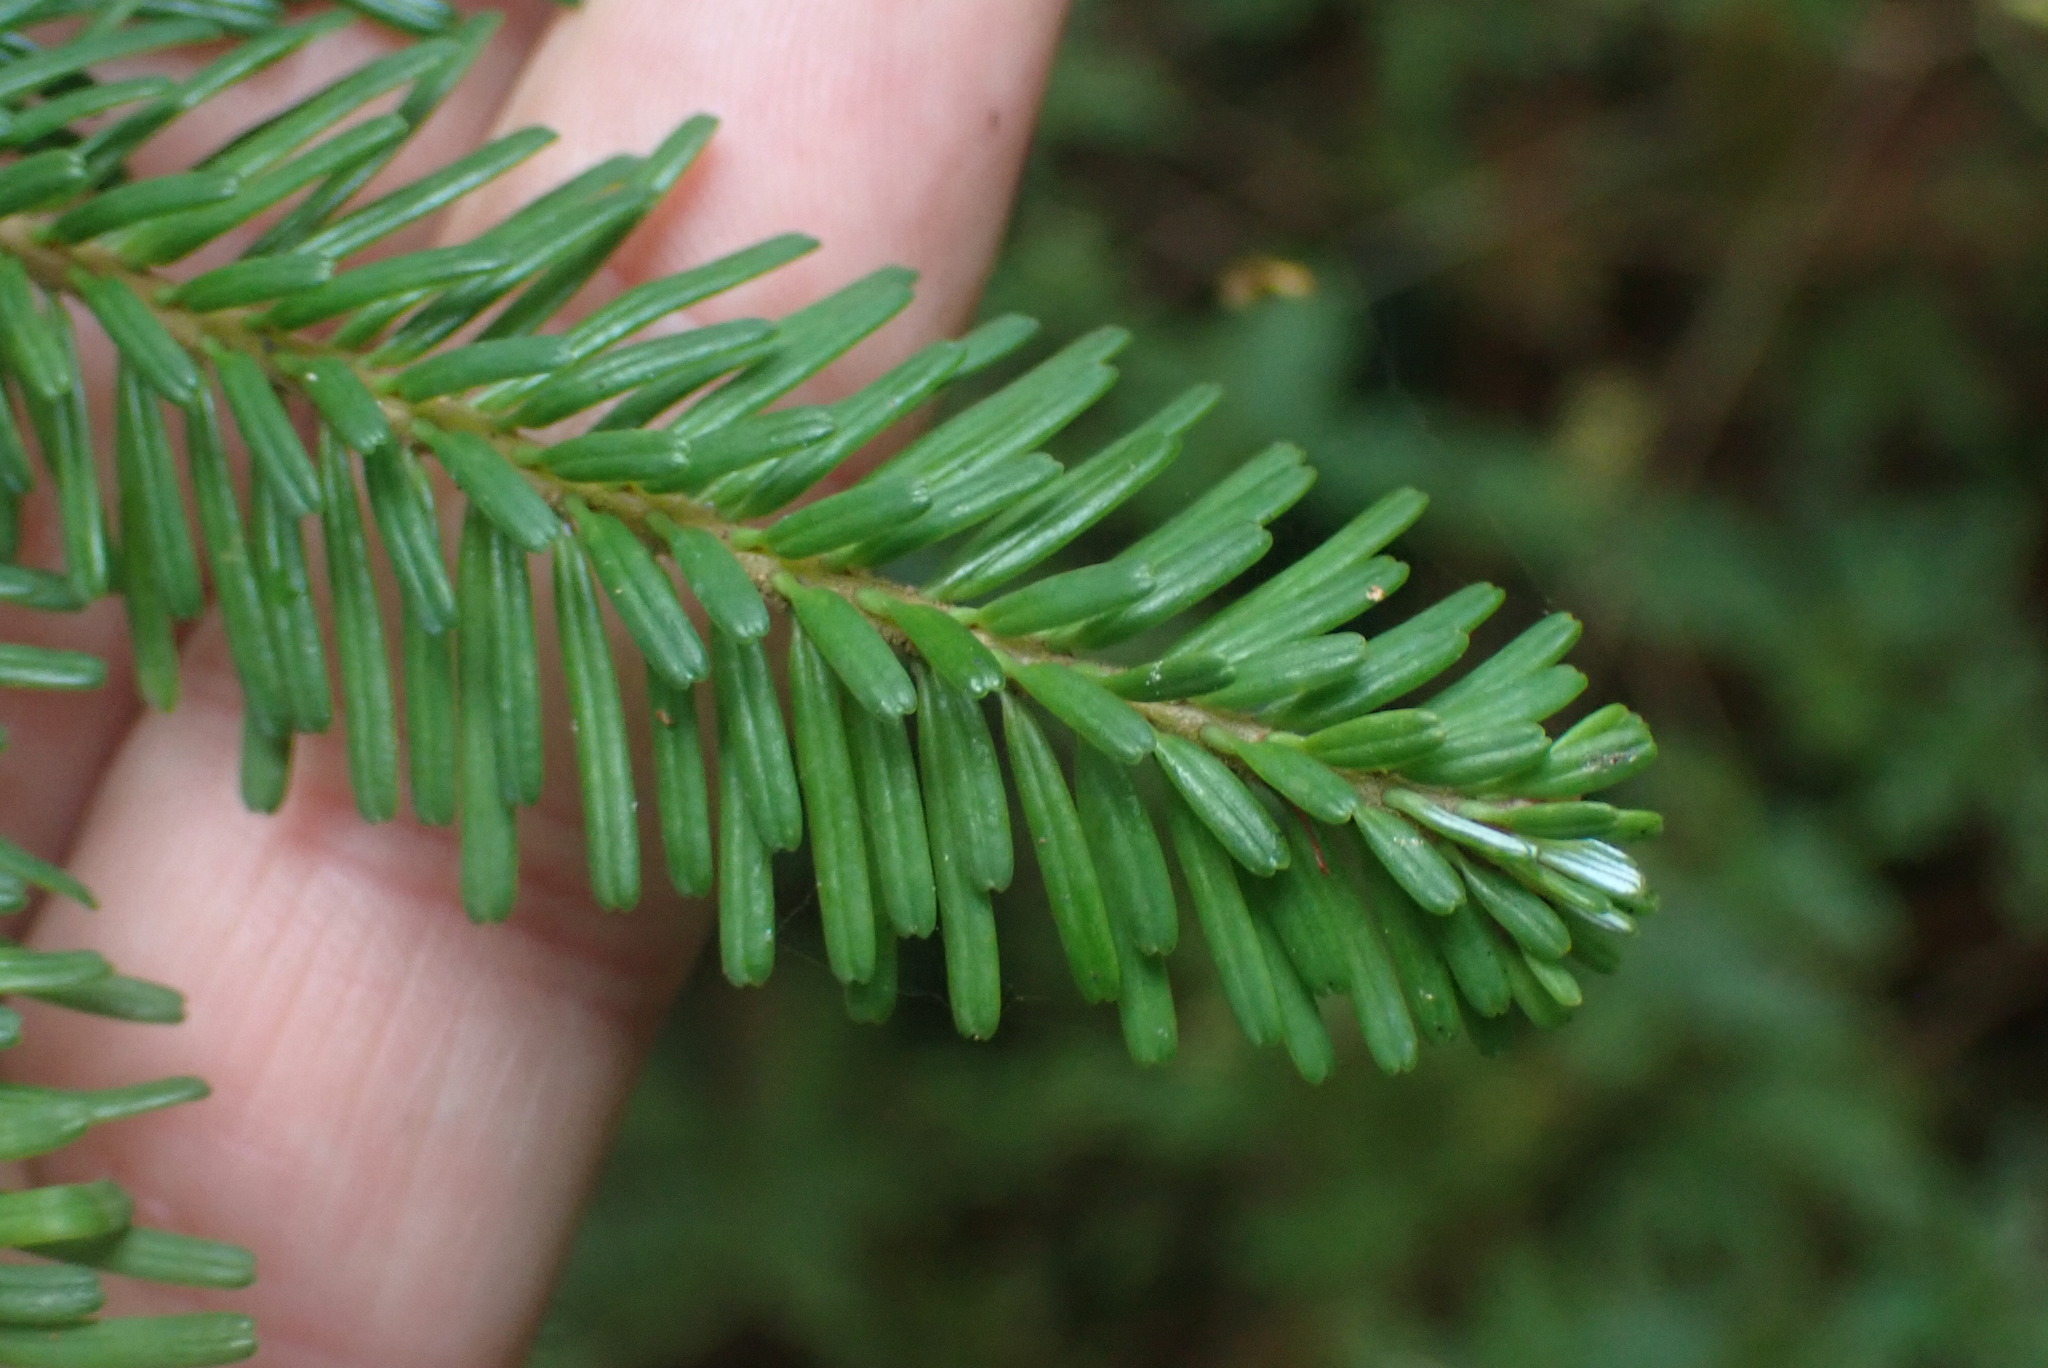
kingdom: Plantae
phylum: Tracheophyta
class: Pinopsida
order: Pinales
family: Pinaceae
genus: Abies
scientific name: Abies amabilis
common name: Pacific silver fir
